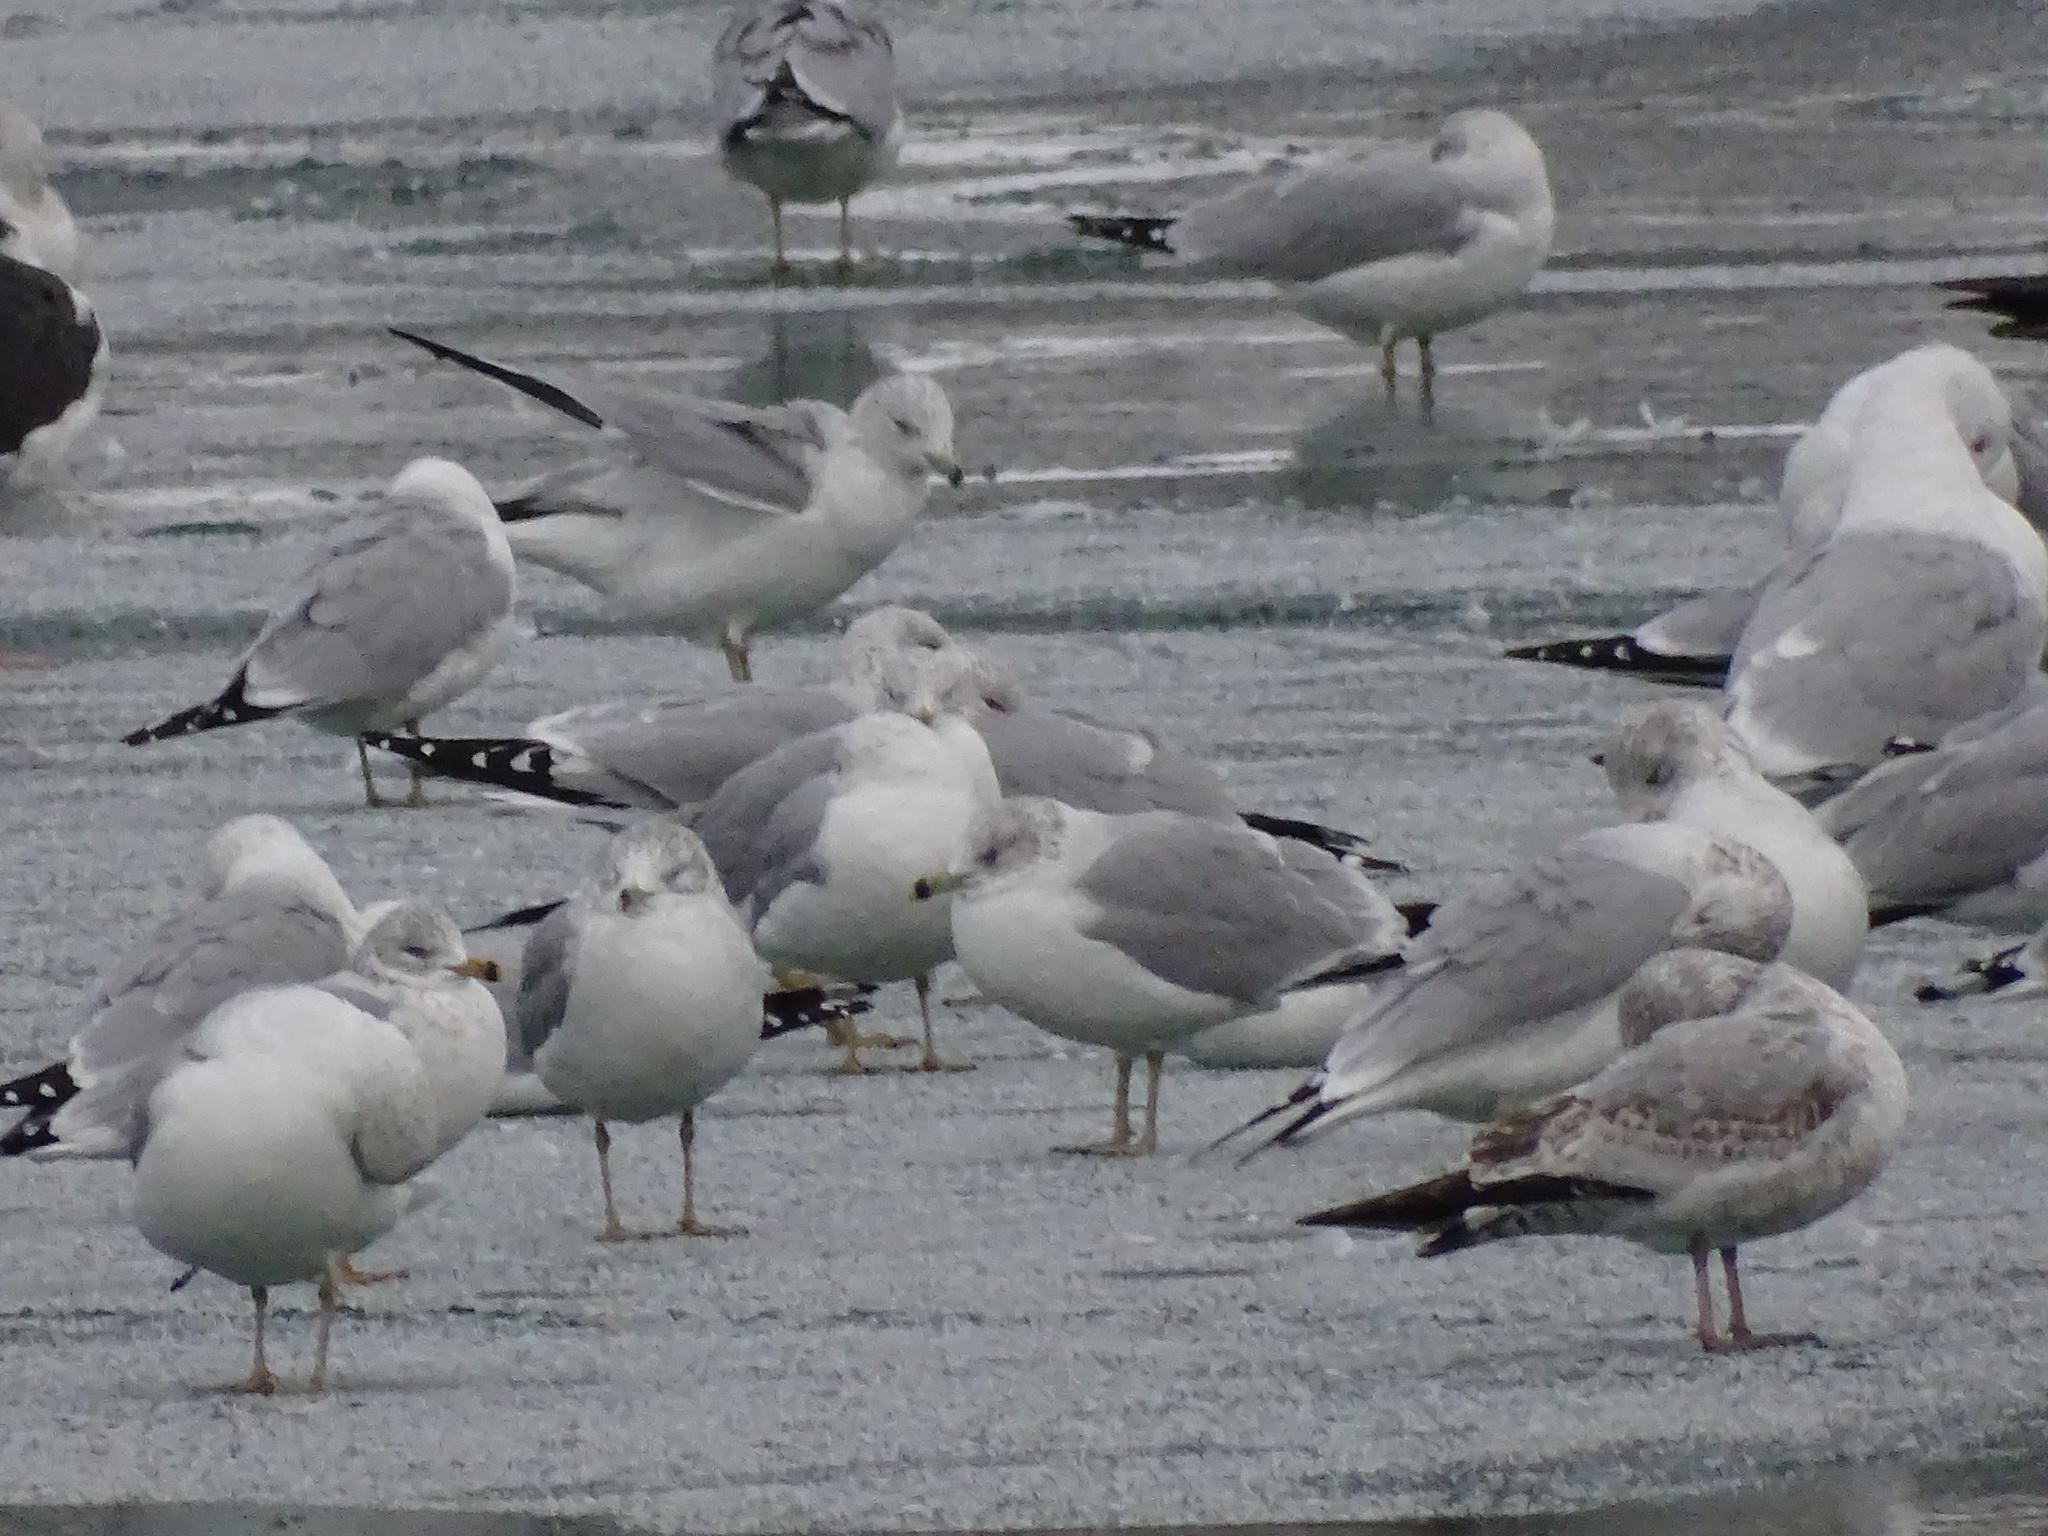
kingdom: Animalia
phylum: Chordata
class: Aves
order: Charadriiformes
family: Laridae
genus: Larus
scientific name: Larus delawarensis
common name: Ring-billed gull
